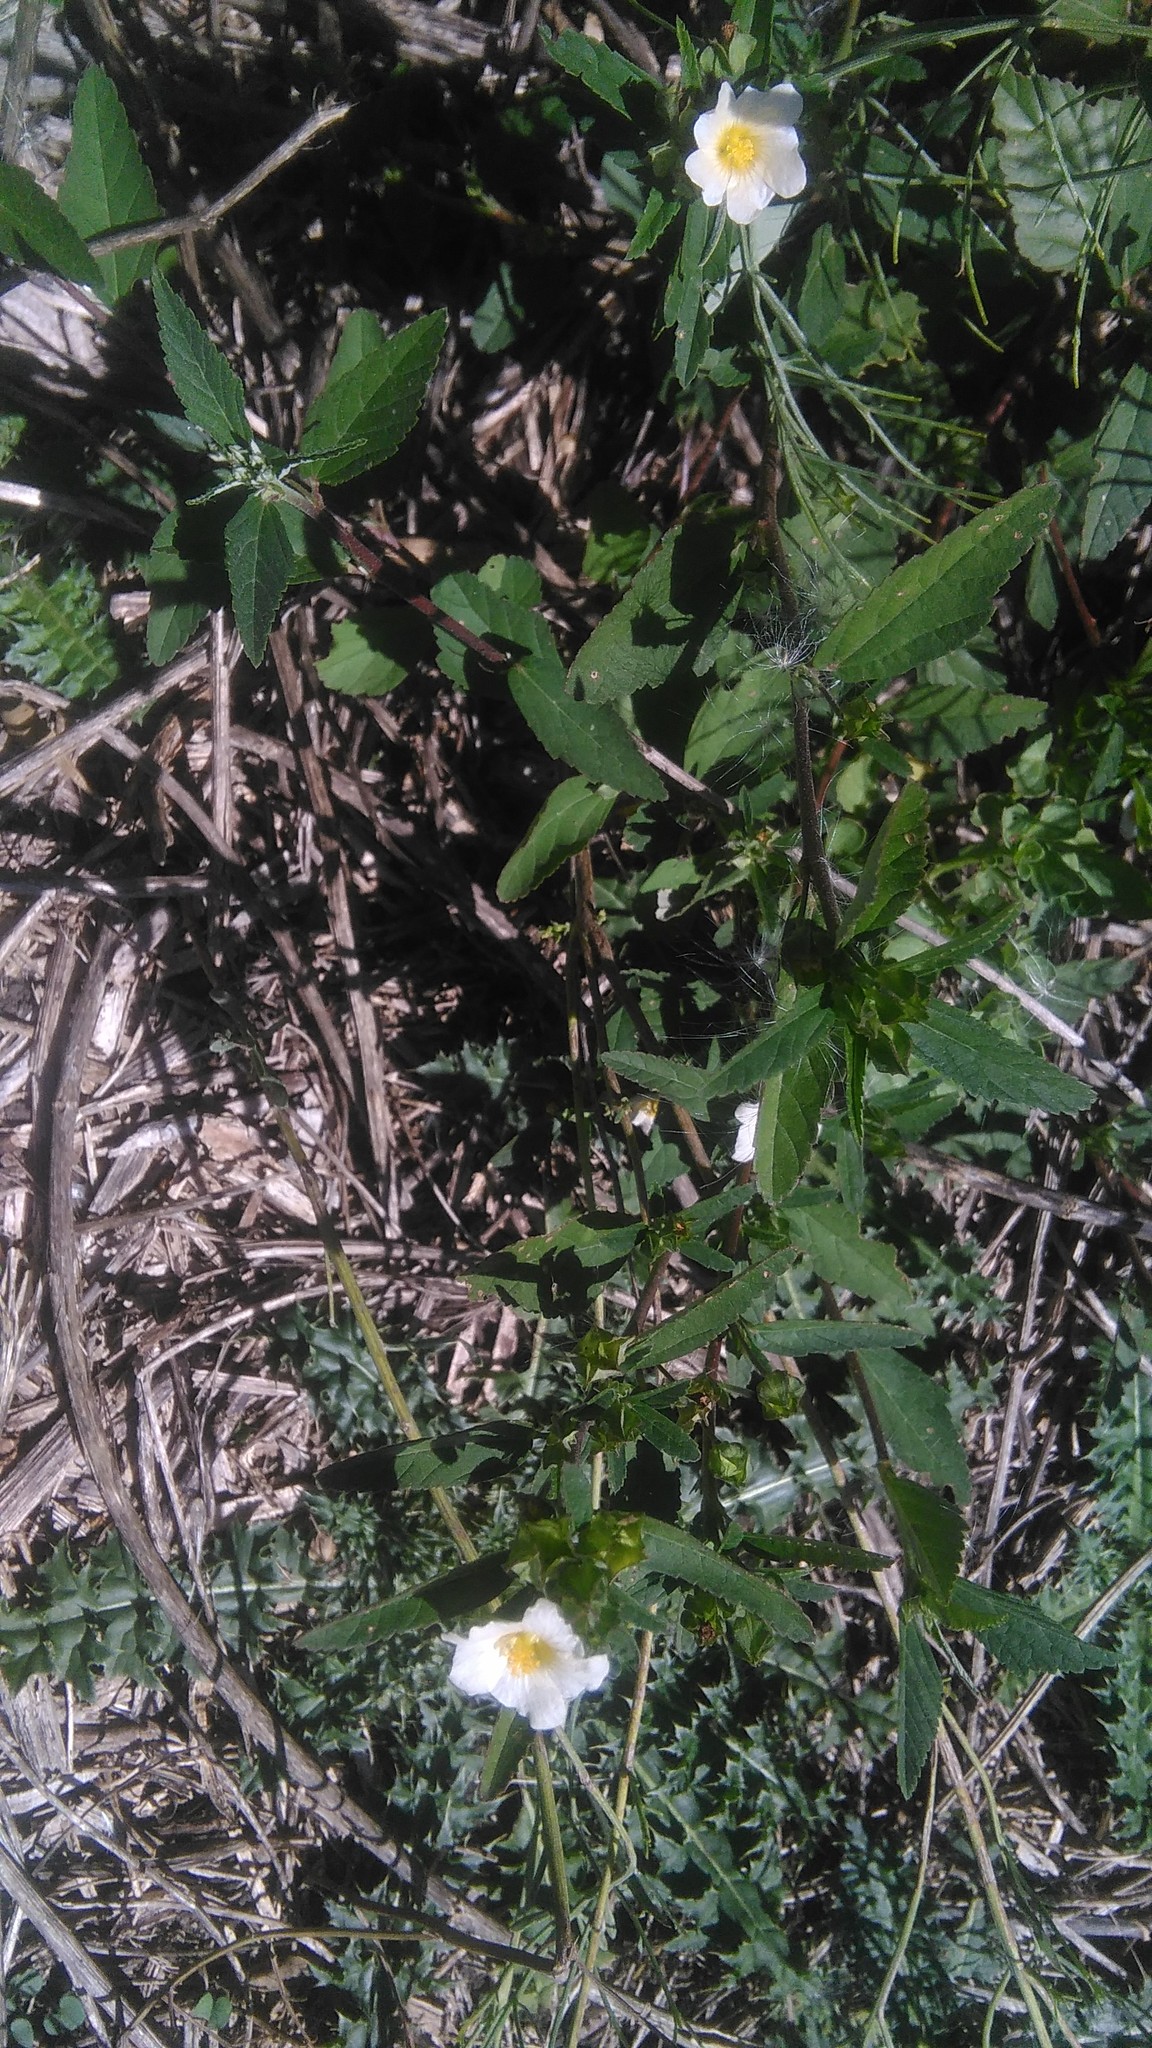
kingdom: Plantae
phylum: Tracheophyta
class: Magnoliopsida
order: Malvales
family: Malvaceae
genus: Sida
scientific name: Sida rhombifolia
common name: Queensland-hemp
